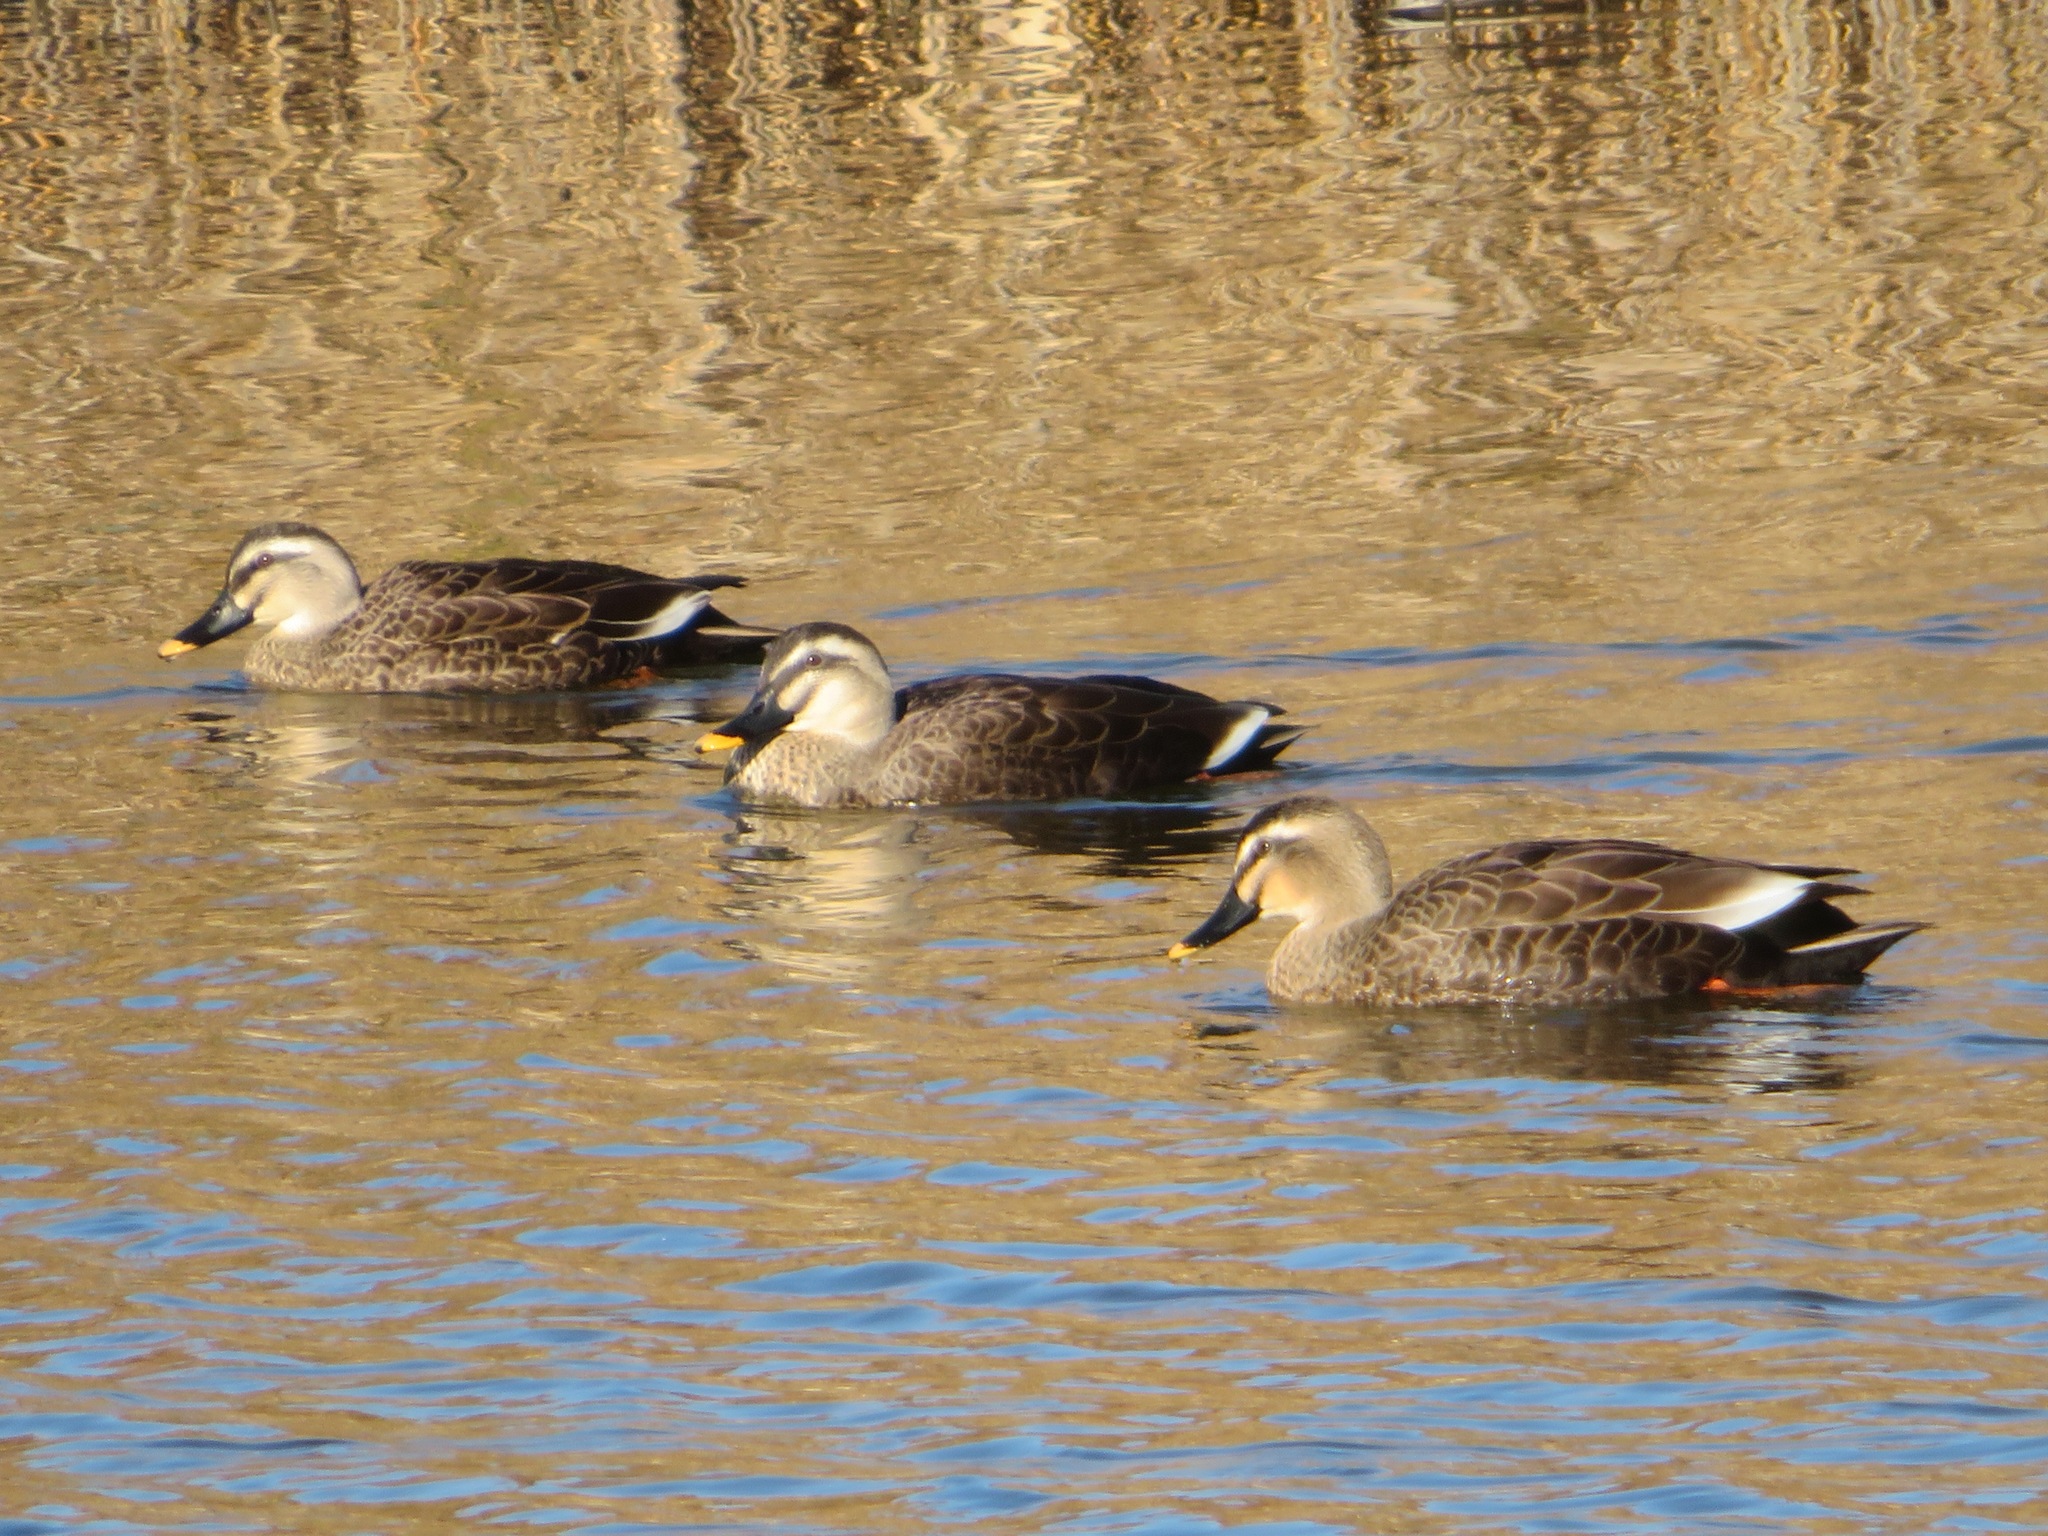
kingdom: Animalia
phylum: Chordata
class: Aves
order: Anseriformes
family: Anatidae
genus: Anas
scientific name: Anas zonorhyncha
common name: Eastern spot-billed duck
